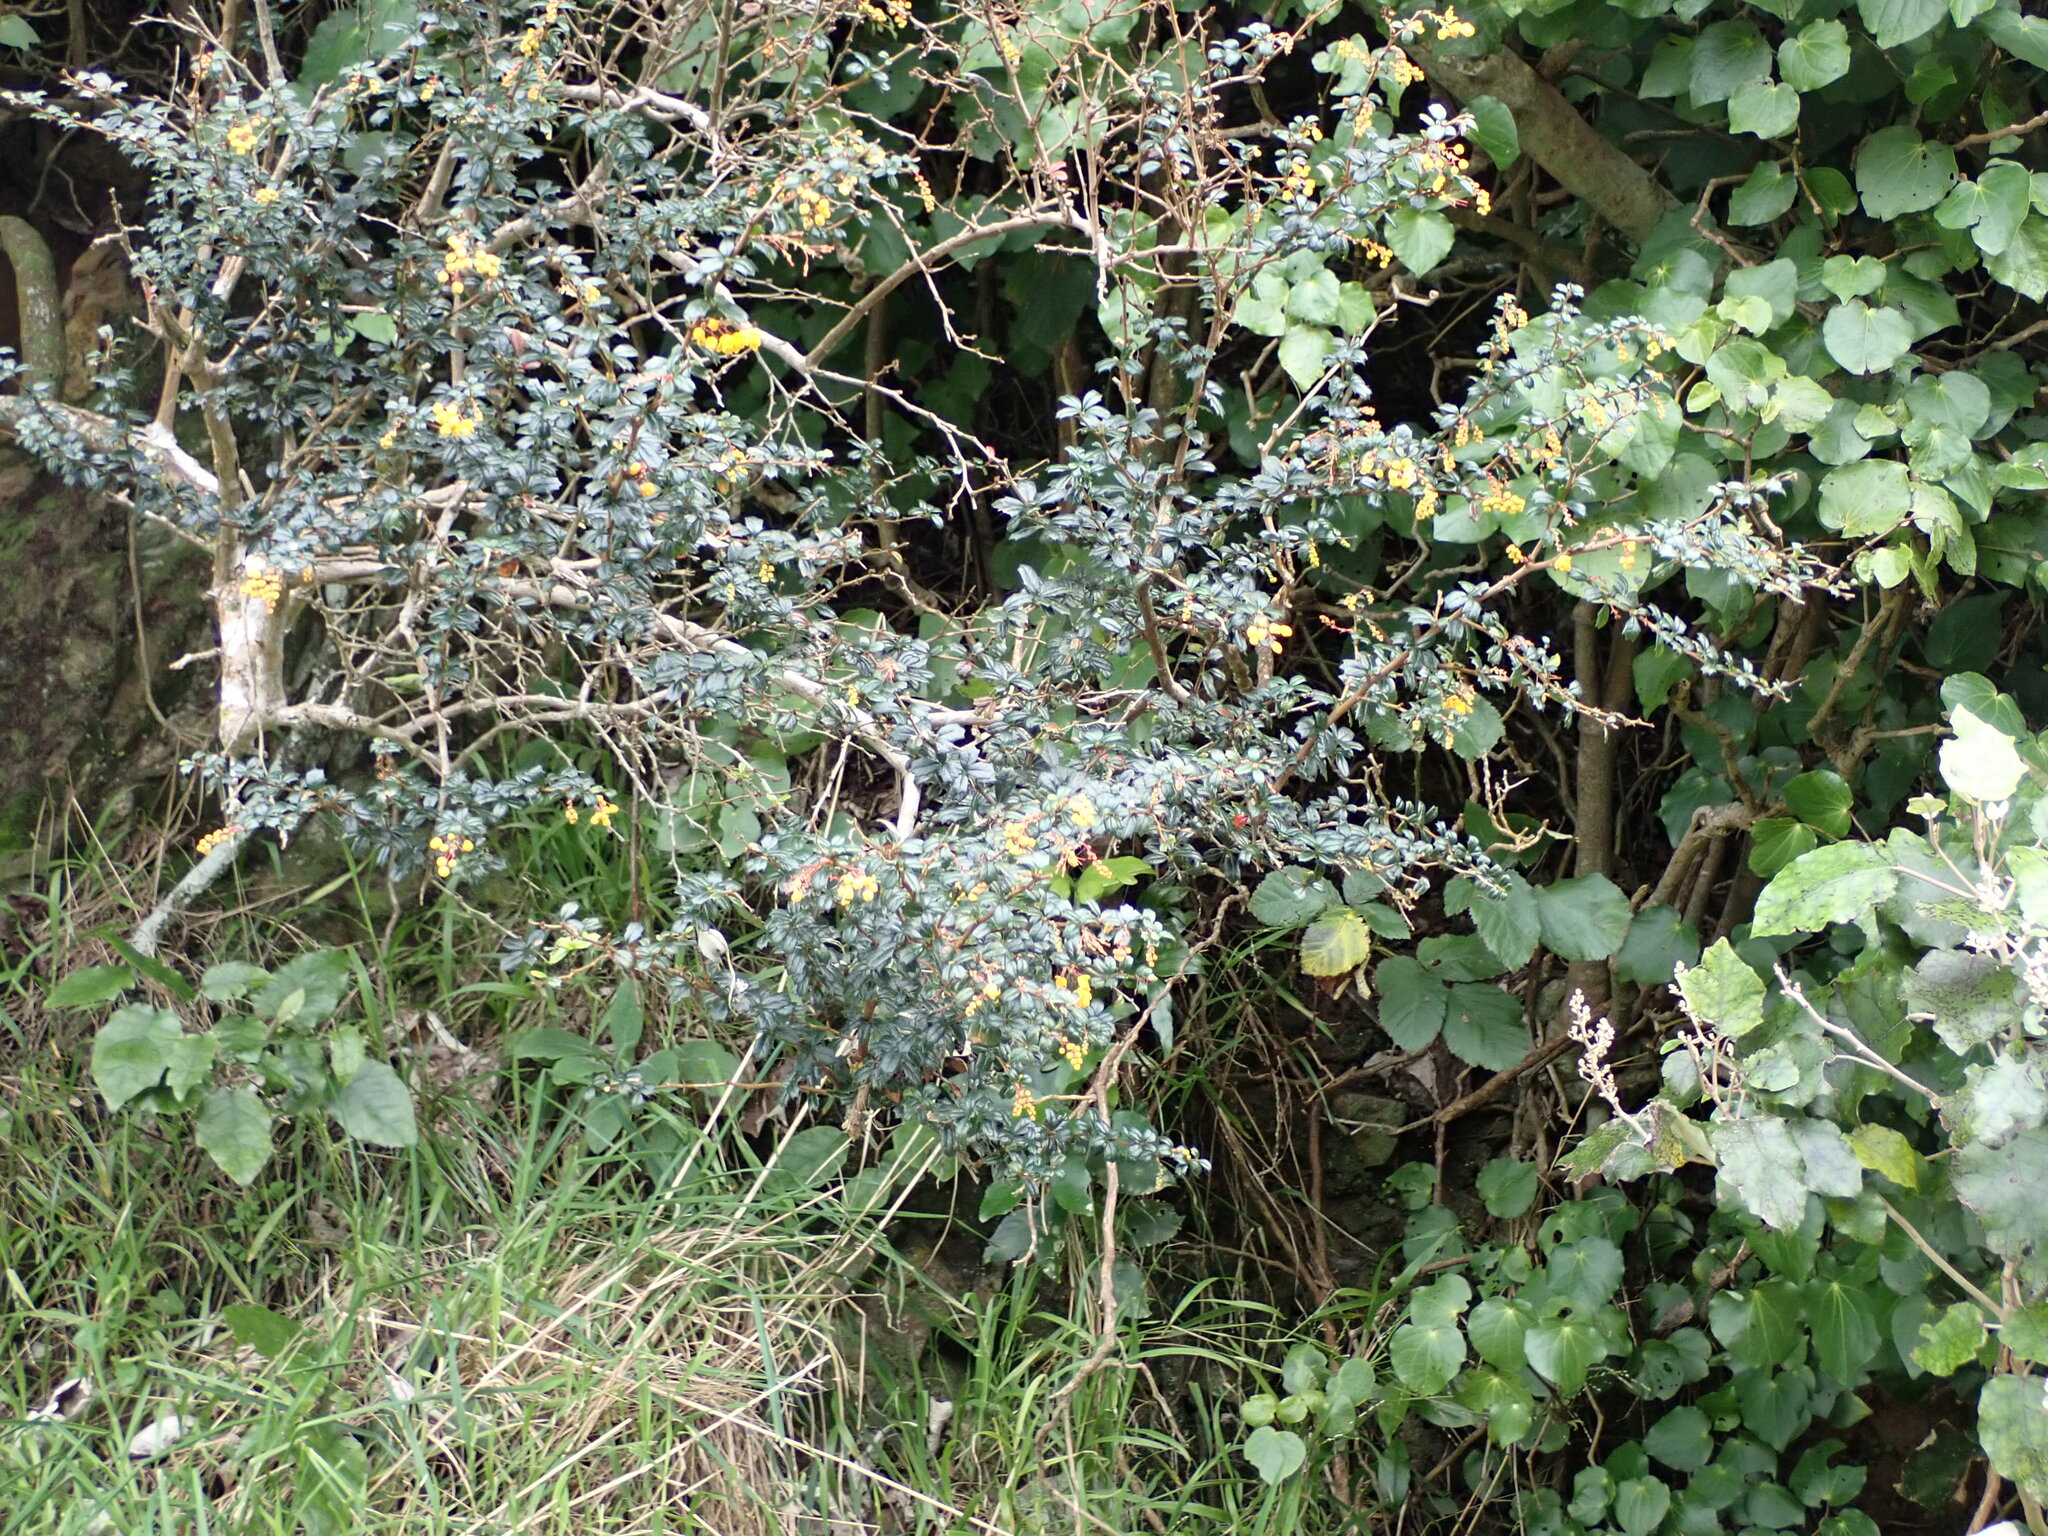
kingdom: Plantae
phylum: Tracheophyta
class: Magnoliopsida
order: Ranunculales
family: Berberidaceae
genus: Berberis
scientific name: Berberis darwinii
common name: Darwin's barberry
